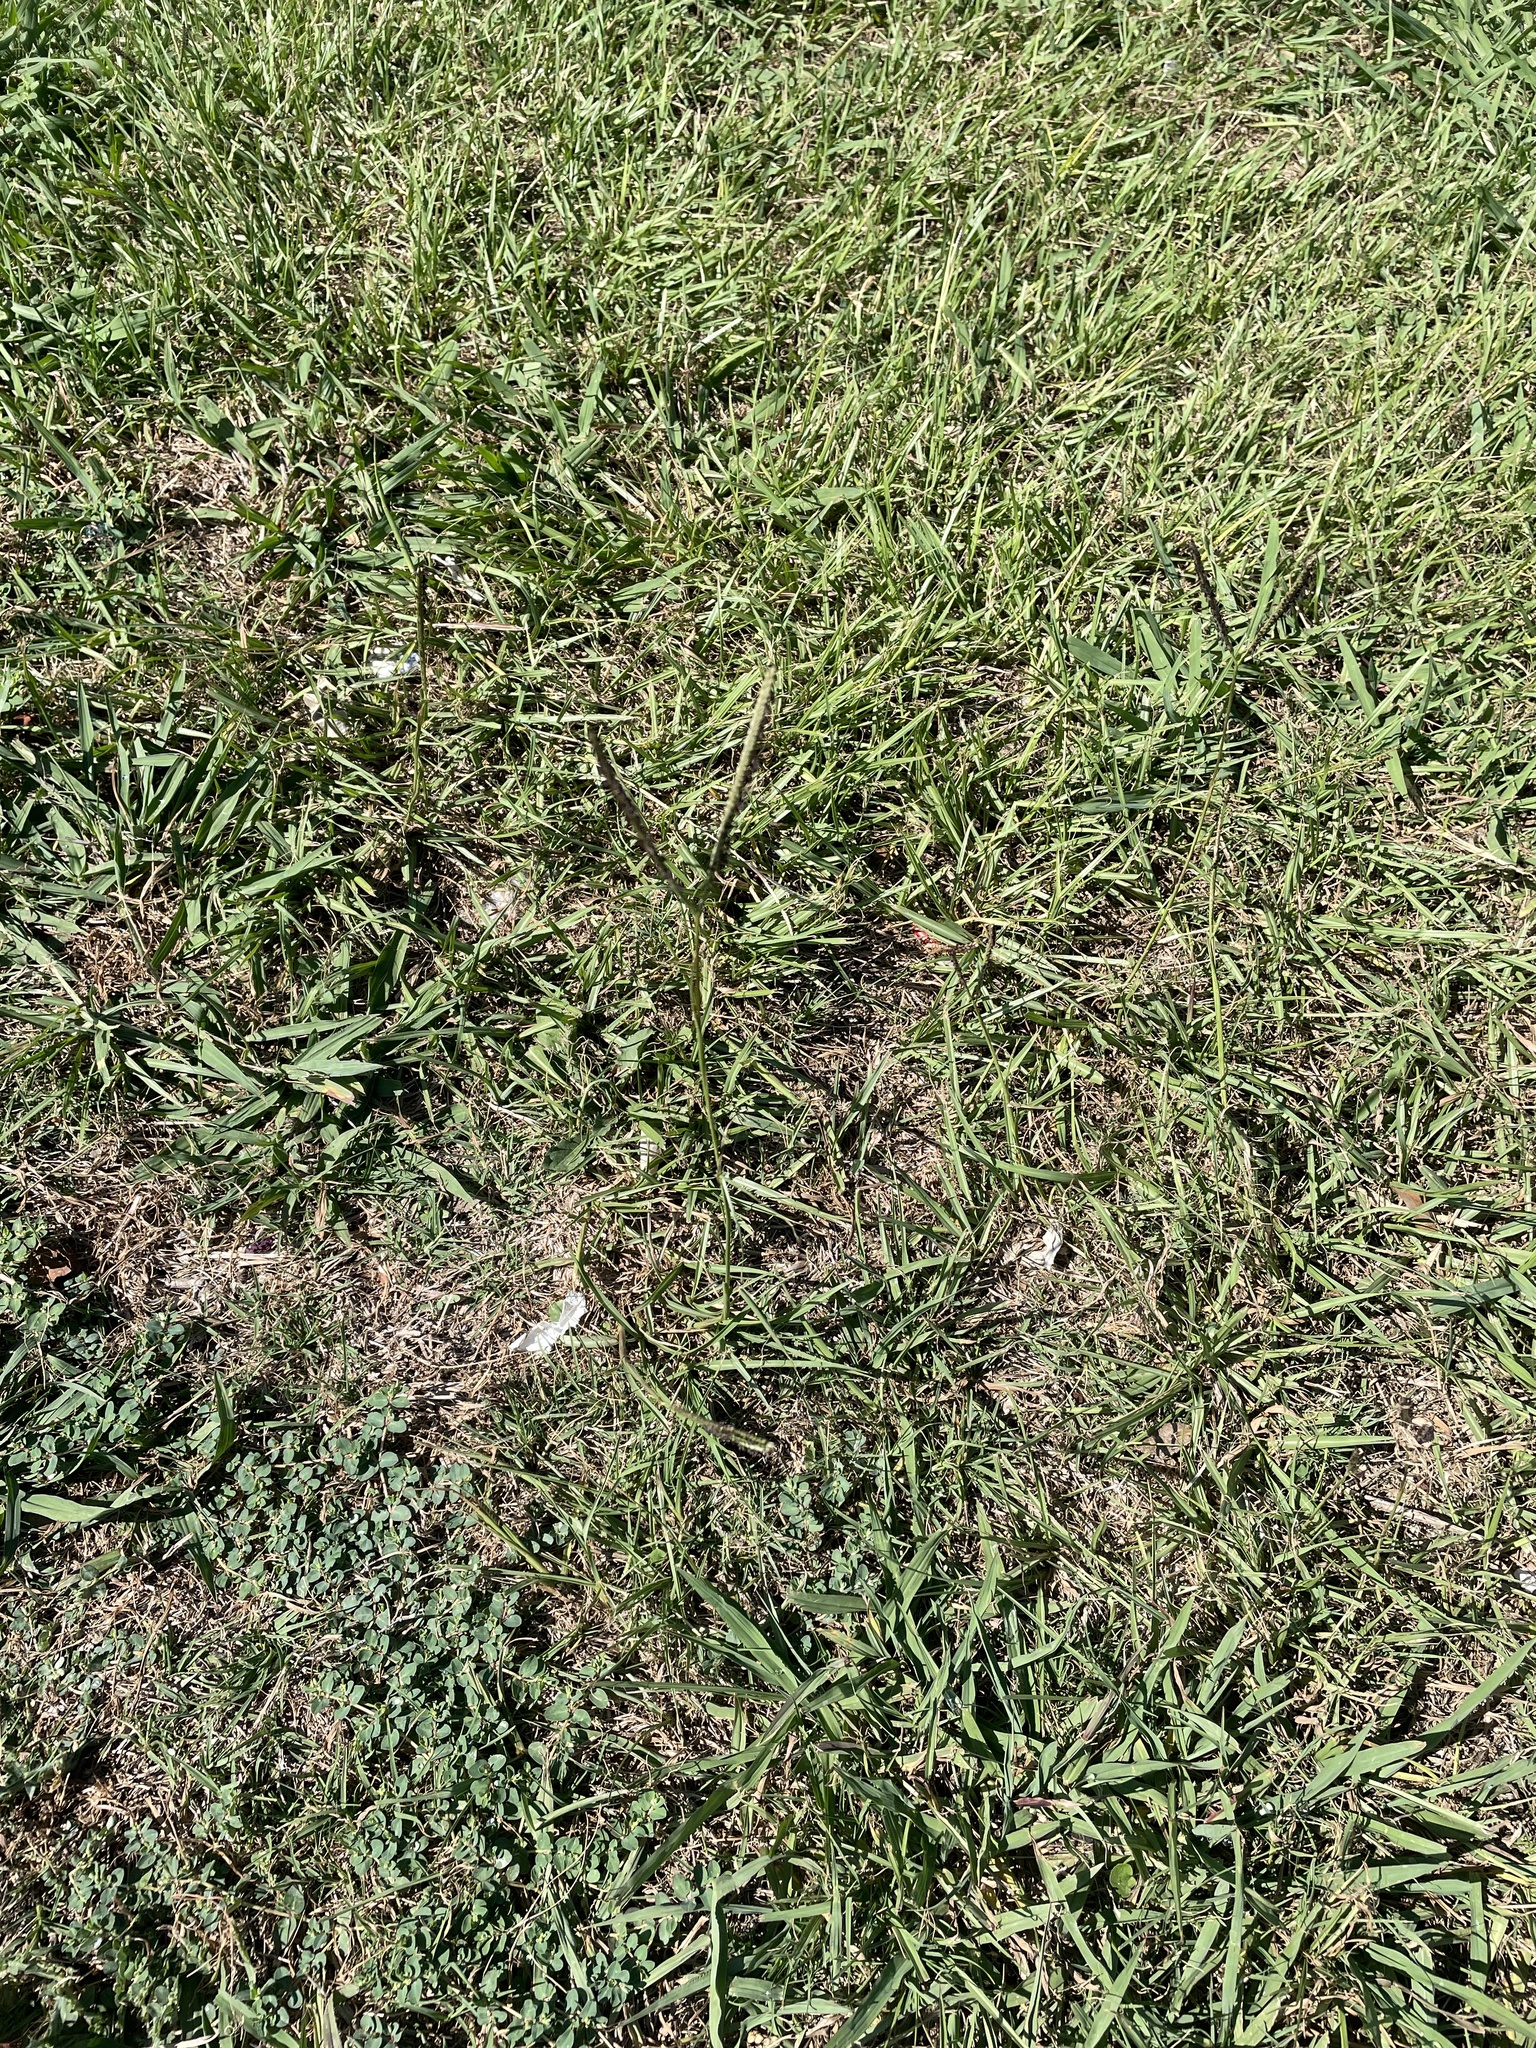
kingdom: Plantae
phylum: Tracheophyta
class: Liliopsida
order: Poales
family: Poaceae
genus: Paspalum
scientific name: Paspalum notatum
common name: Bahiagrass
